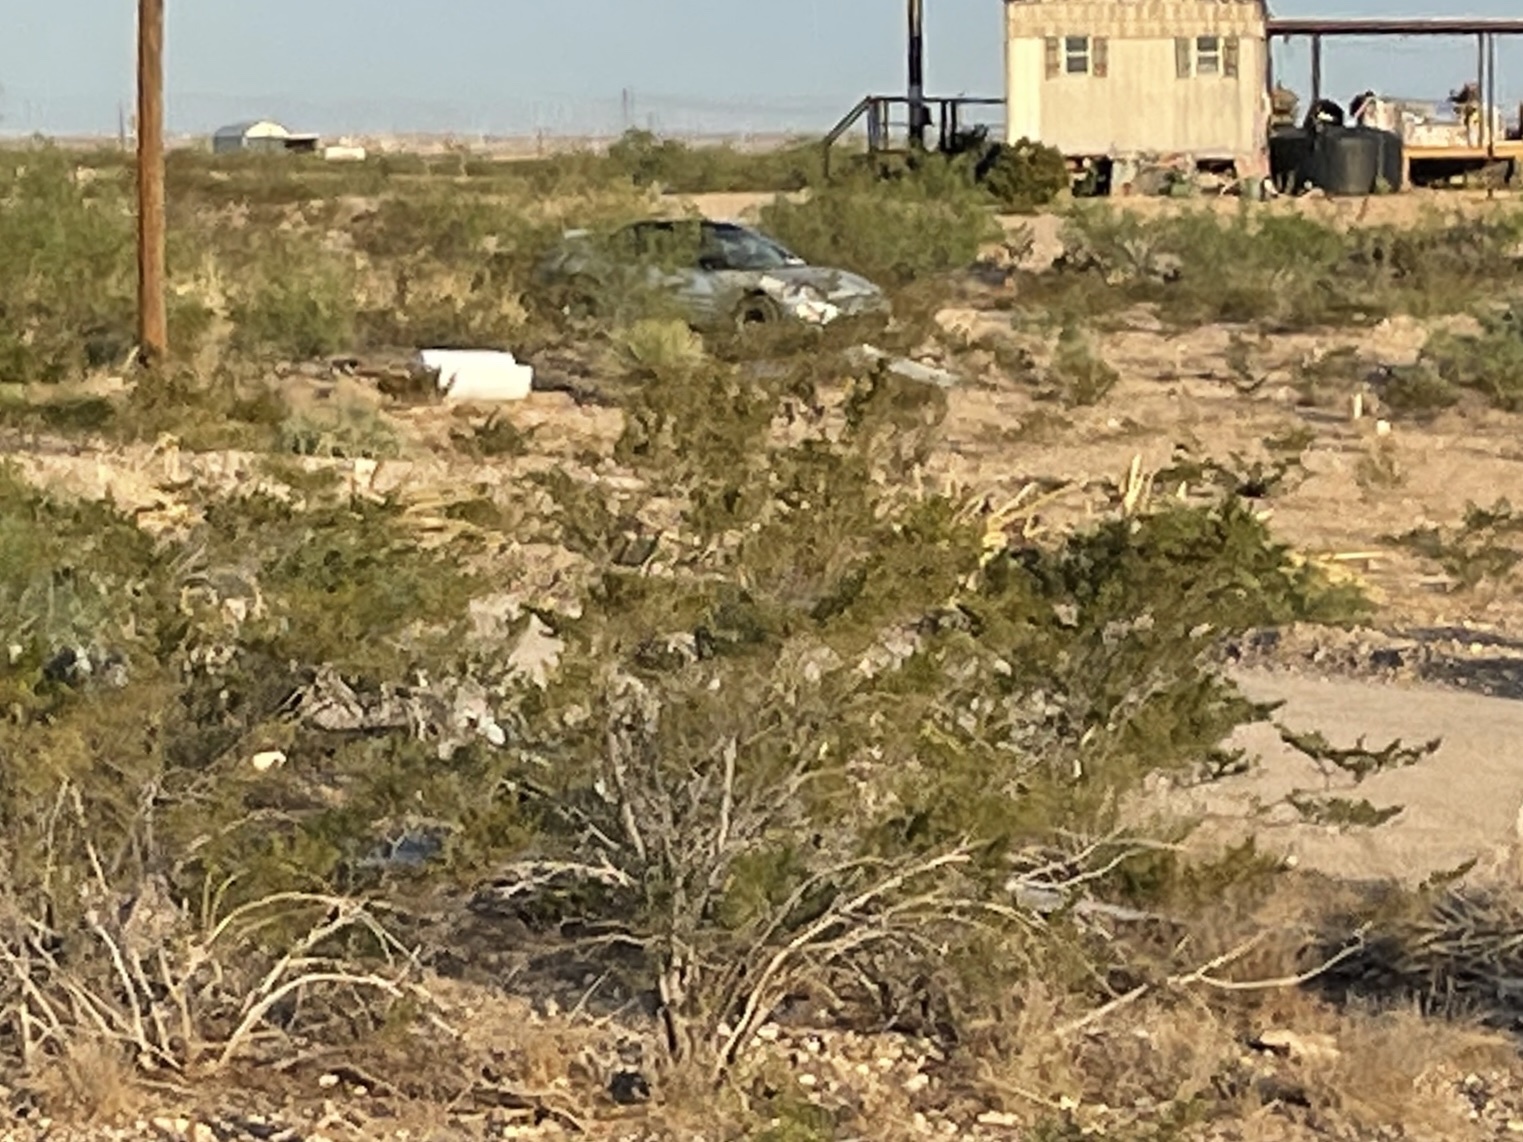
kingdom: Plantae
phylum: Tracheophyta
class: Magnoliopsida
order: Zygophyllales
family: Zygophyllaceae
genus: Larrea
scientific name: Larrea tridentata
